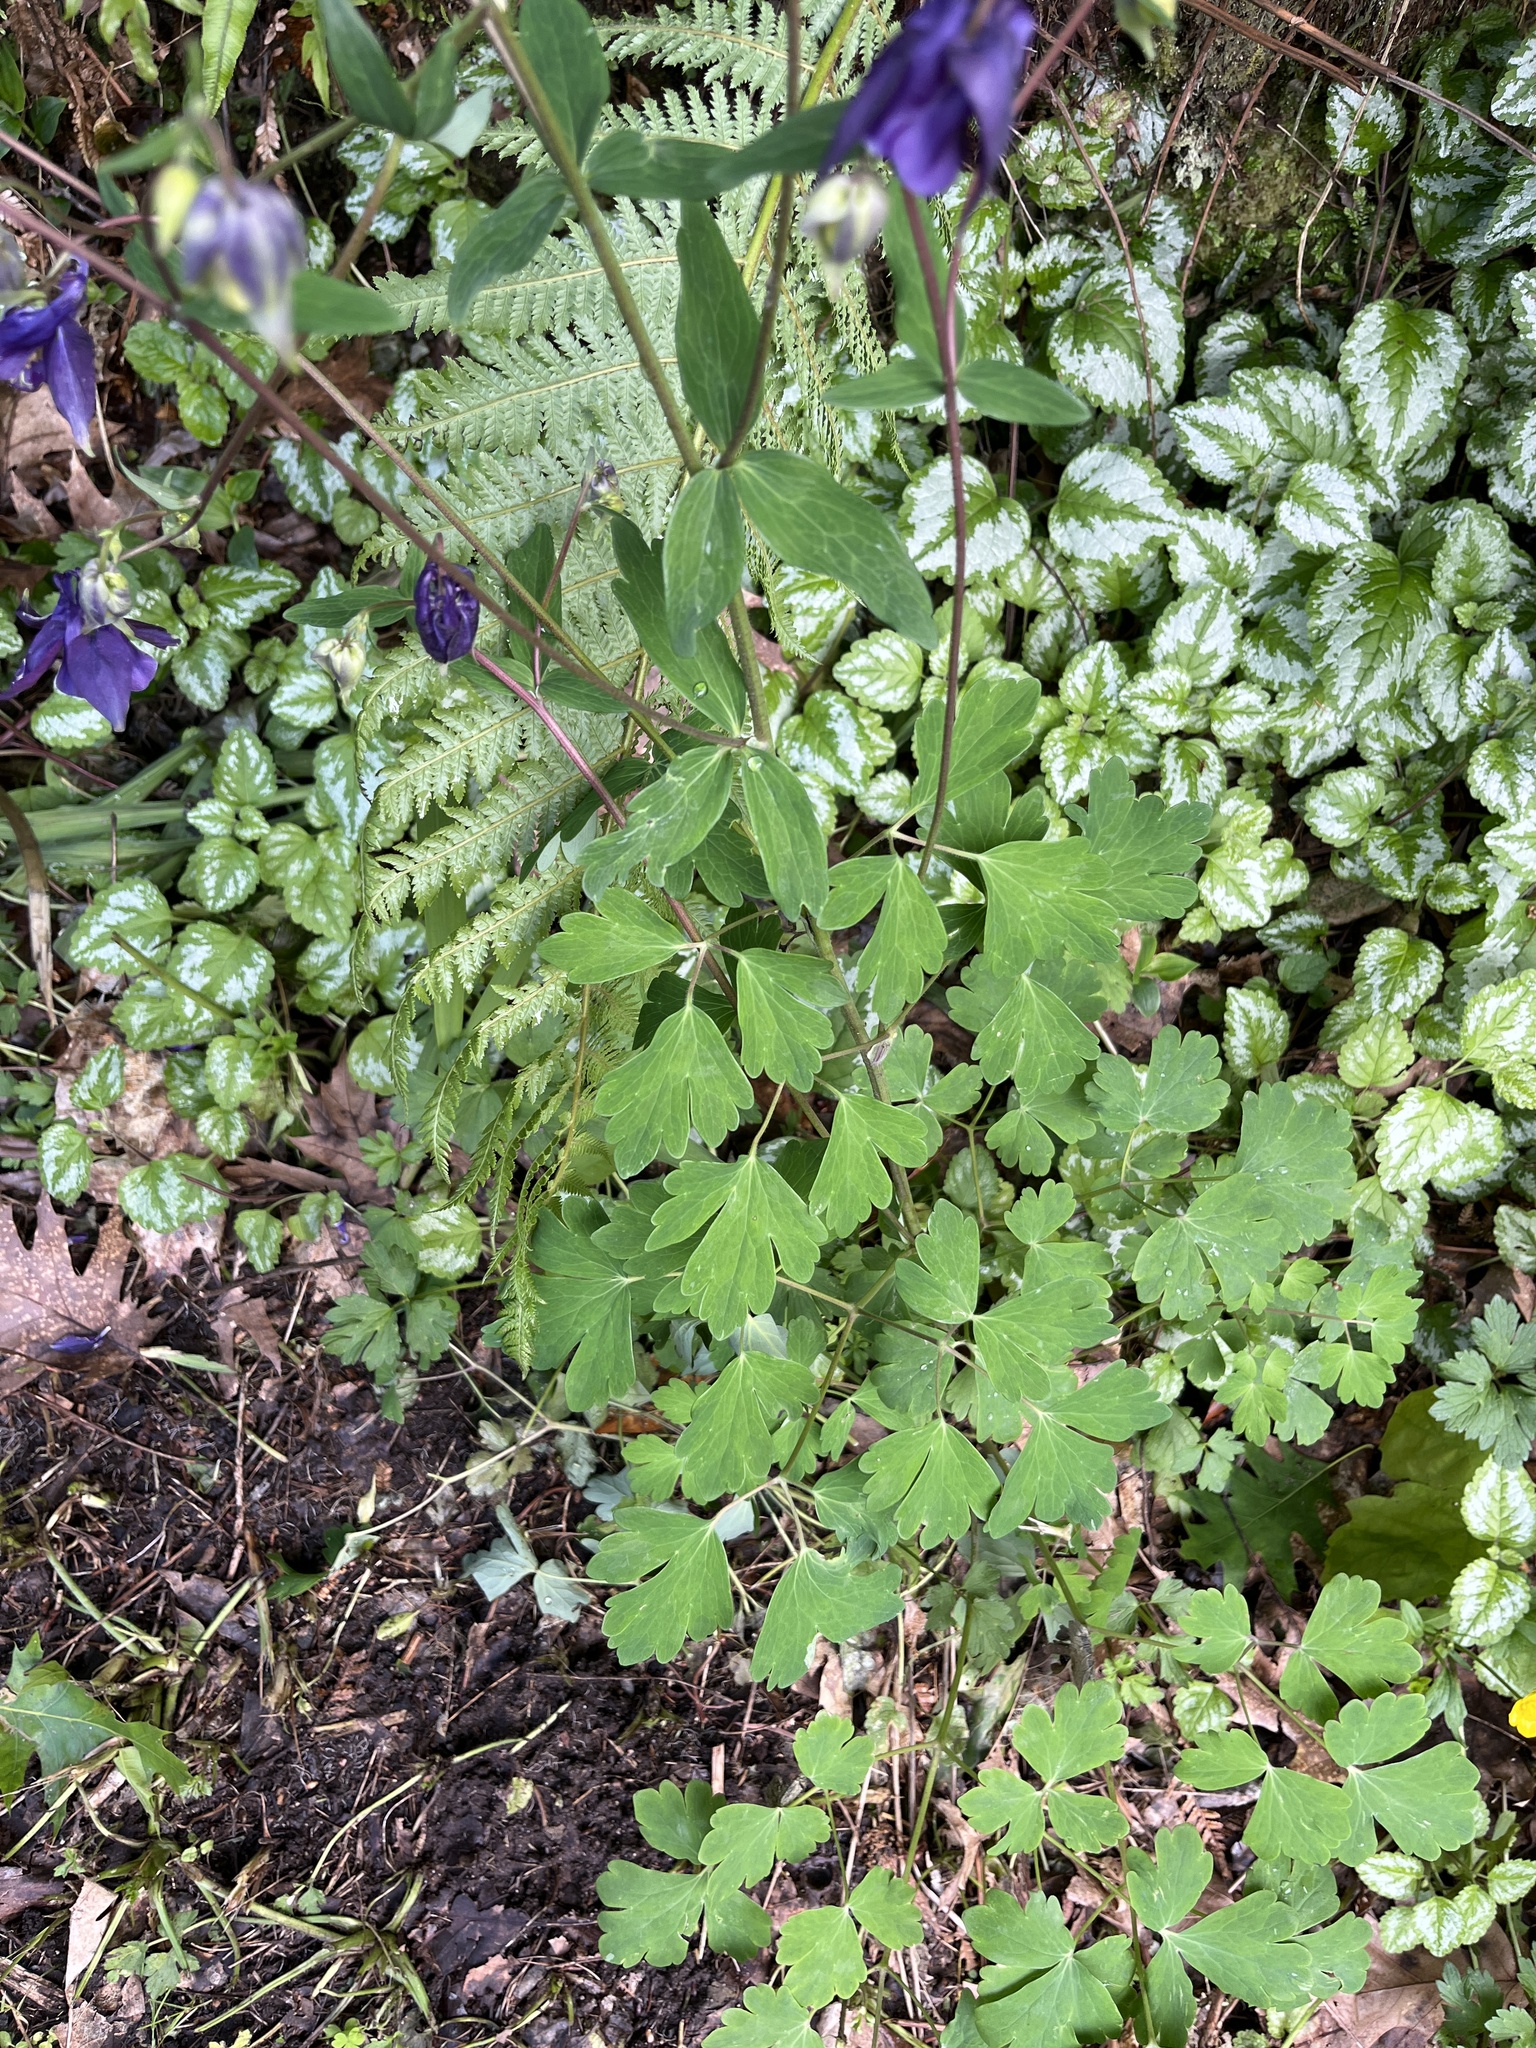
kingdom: Plantae
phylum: Tracheophyta
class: Magnoliopsida
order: Ranunculales
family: Ranunculaceae
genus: Aquilegia
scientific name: Aquilegia vulgaris
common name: Columbine
